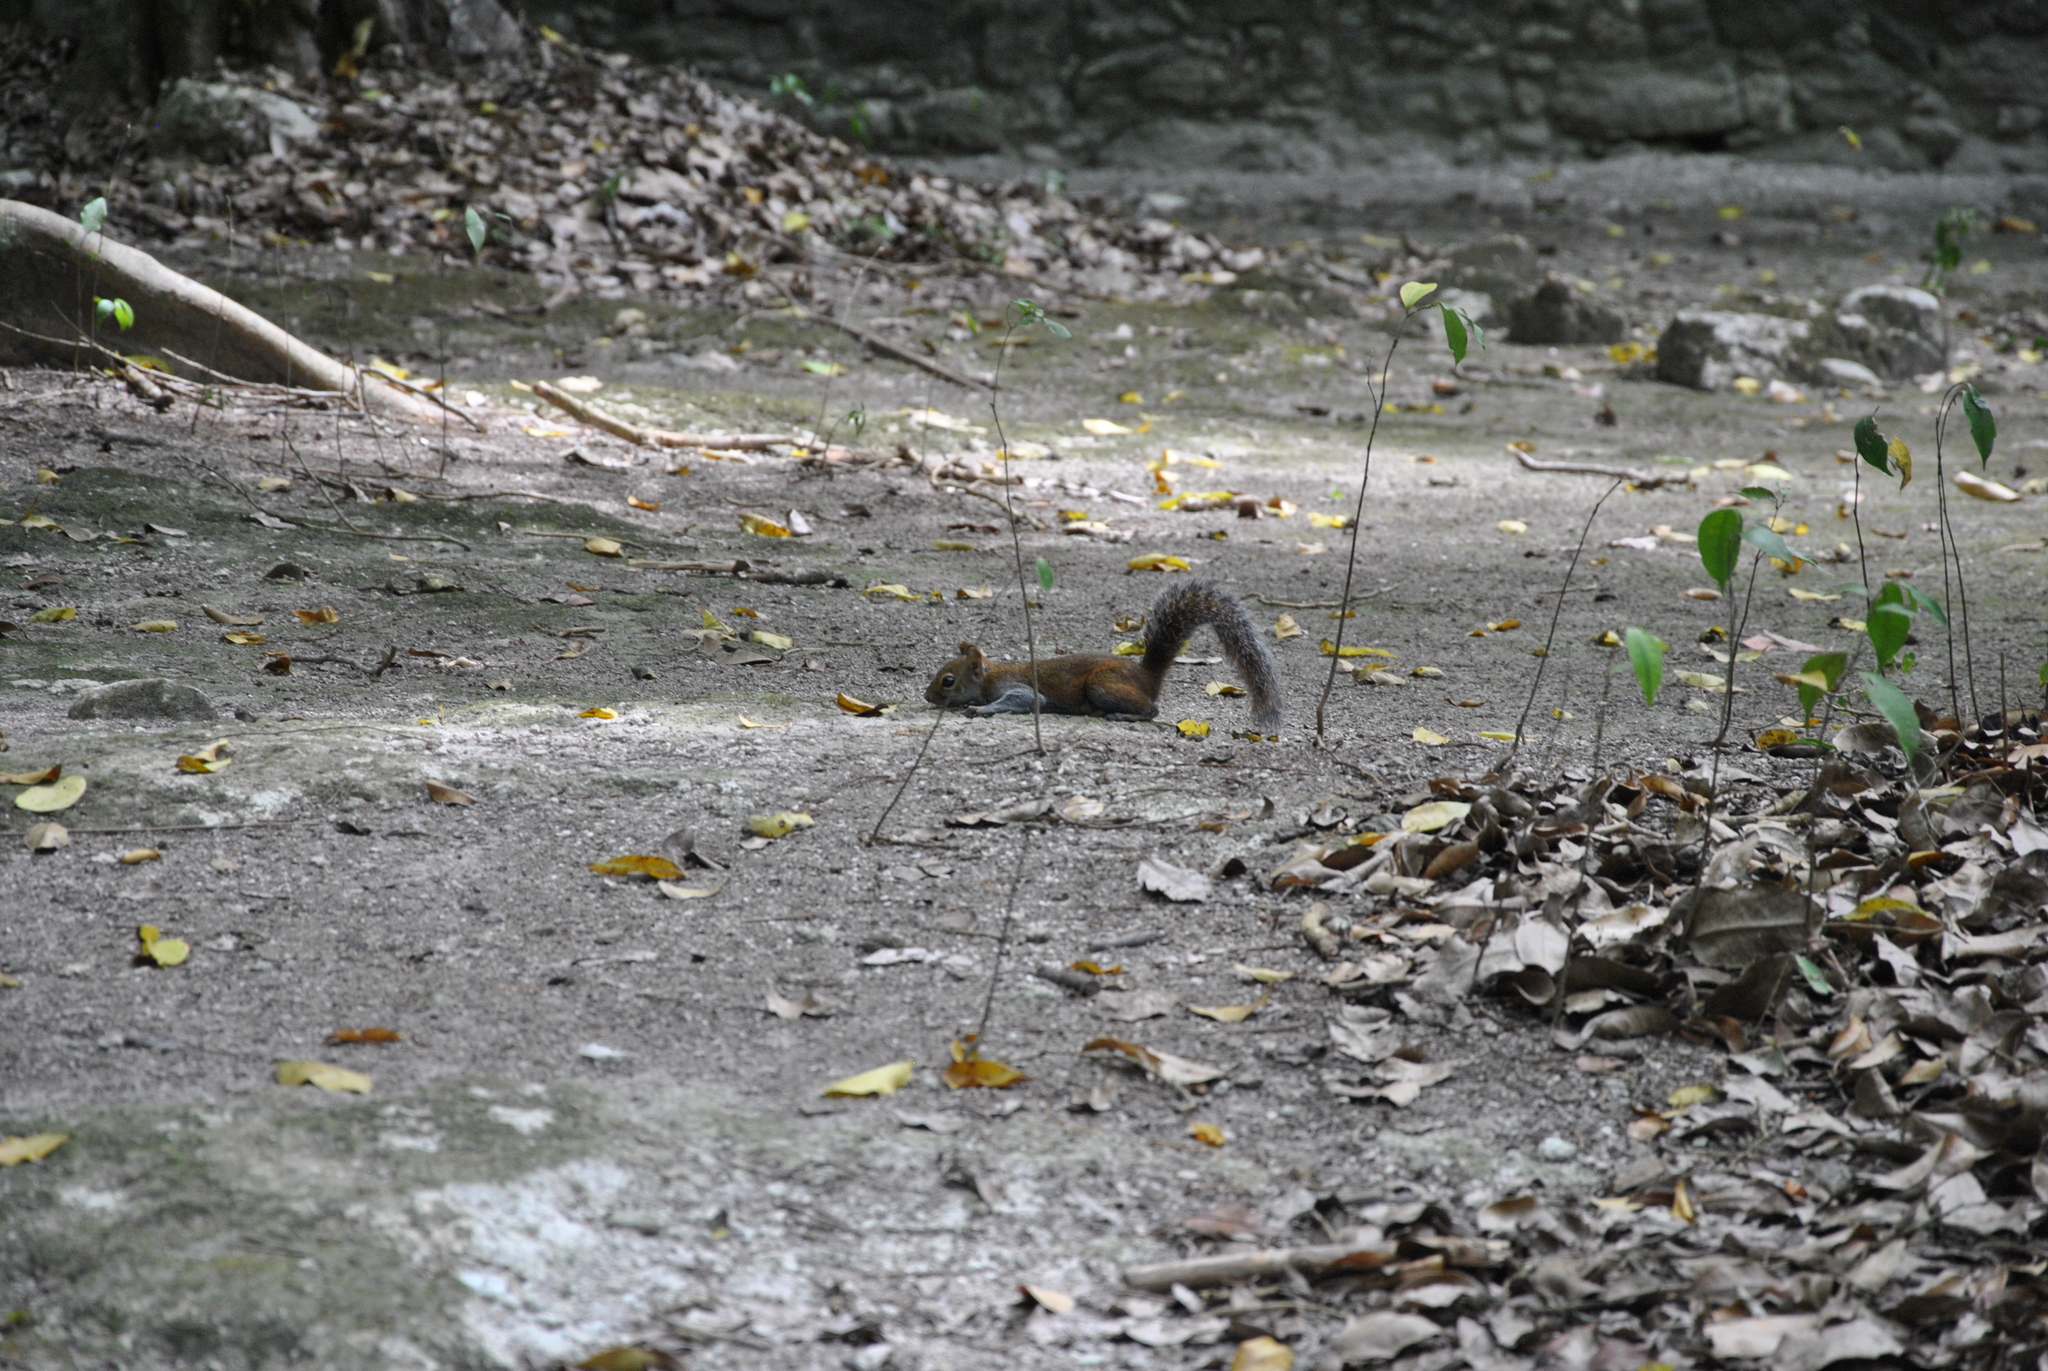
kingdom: Animalia
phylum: Chordata
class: Mammalia
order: Rodentia
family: Sciuridae
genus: Sciurus
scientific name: Sciurus deppei
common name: Deppe's squirrel
